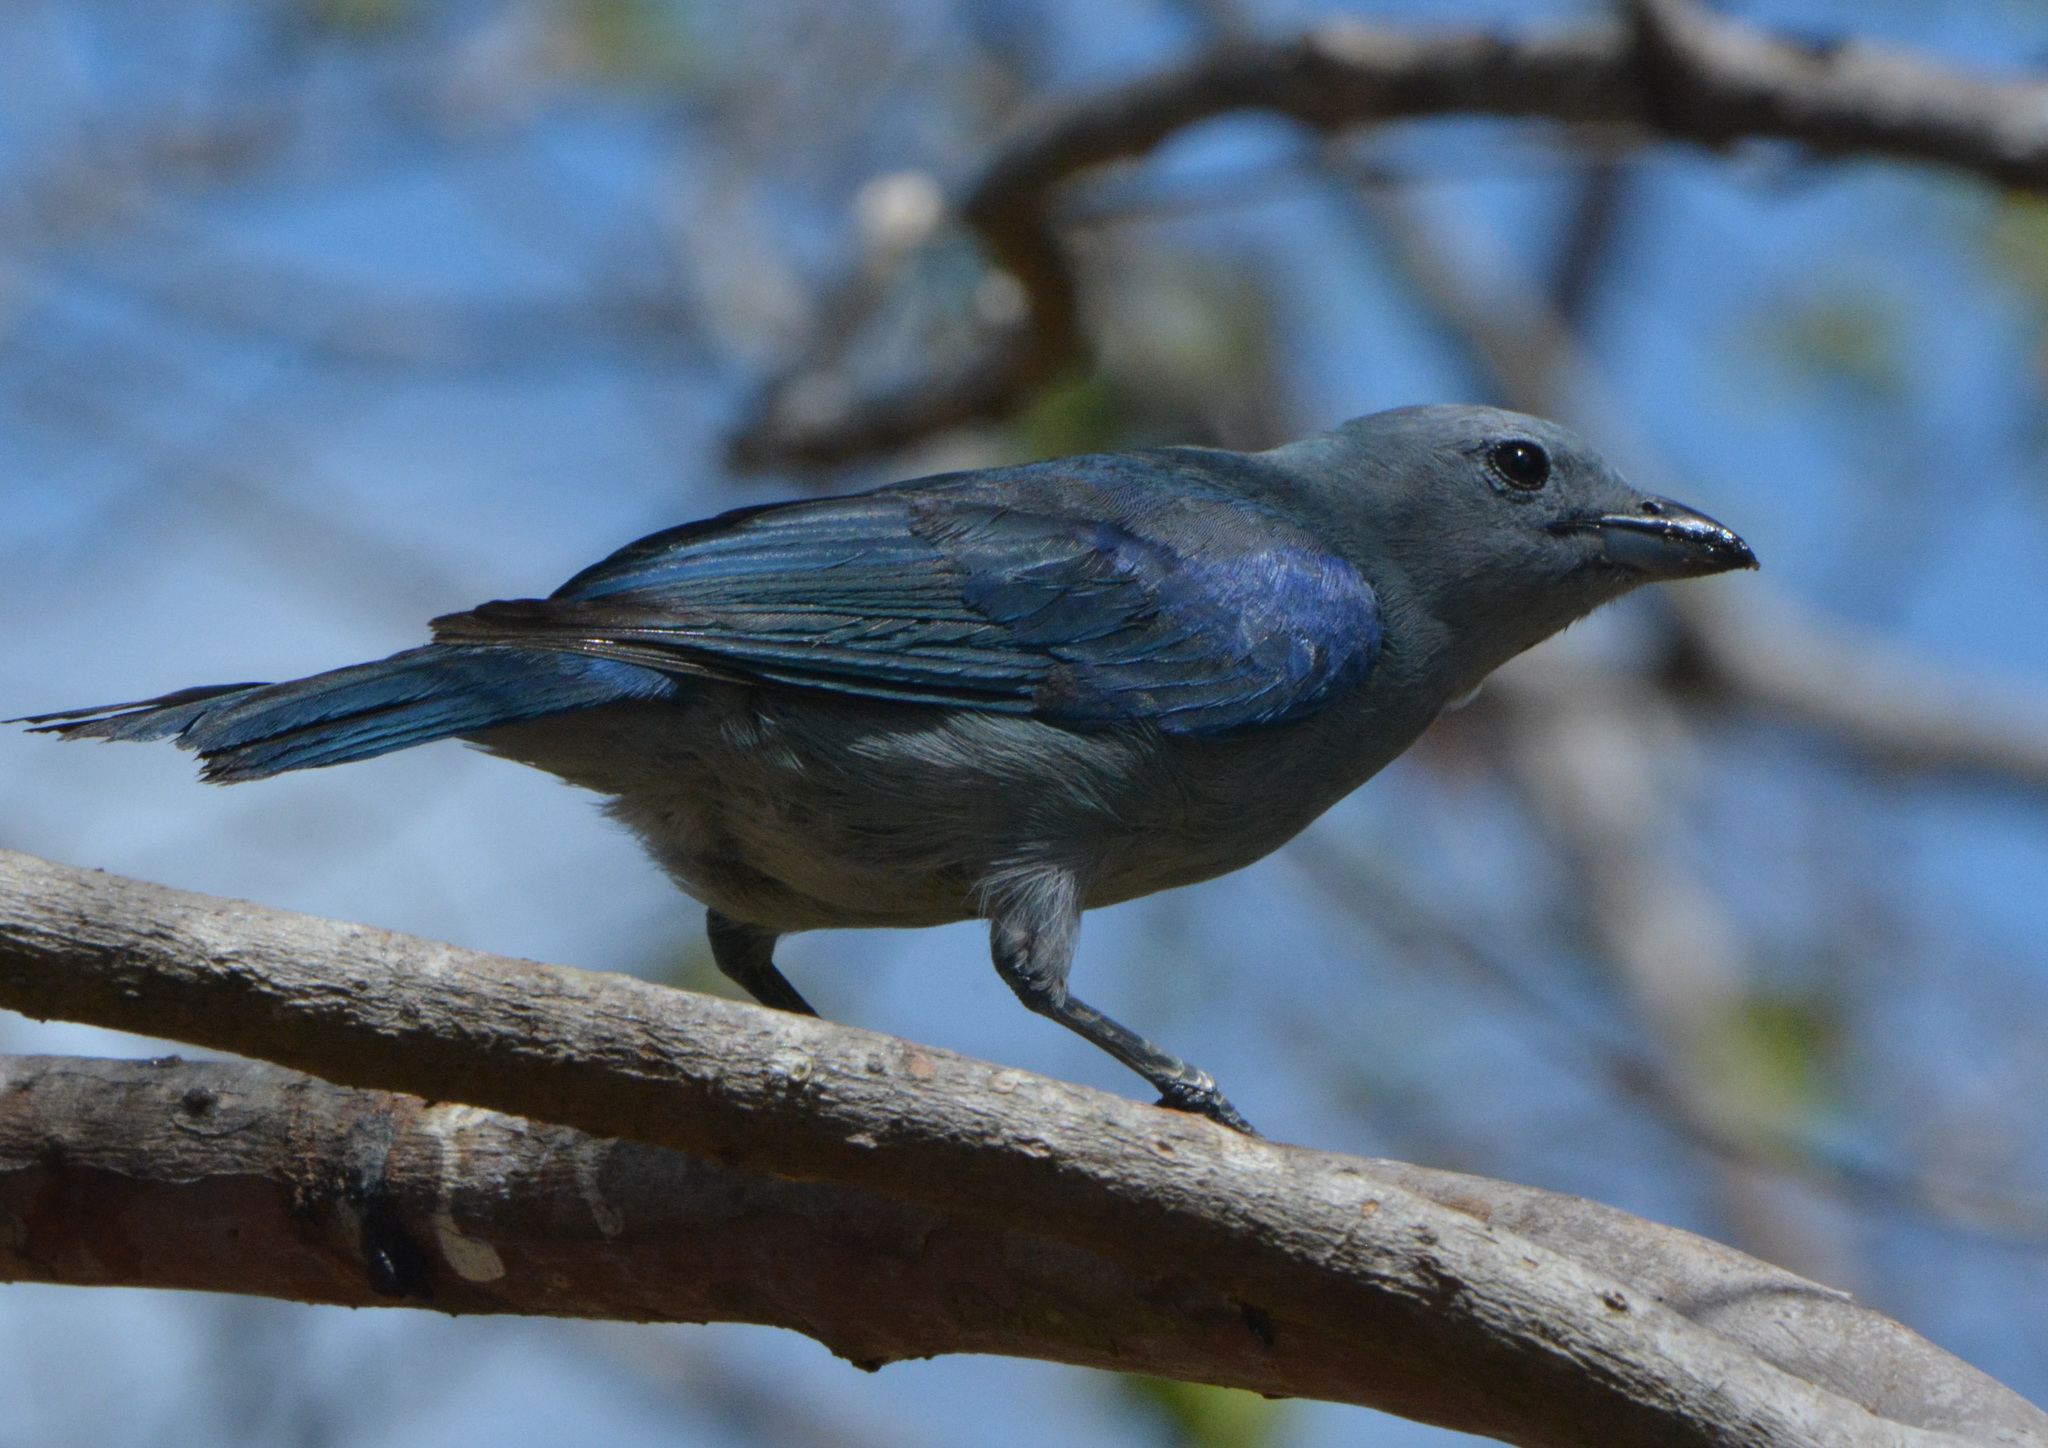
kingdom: Animalia
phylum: Chordata
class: Aves
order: Passeriformes
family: Thraupidae
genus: Thraupis
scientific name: Thraupis episcopus
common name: Blue-grey tanager
